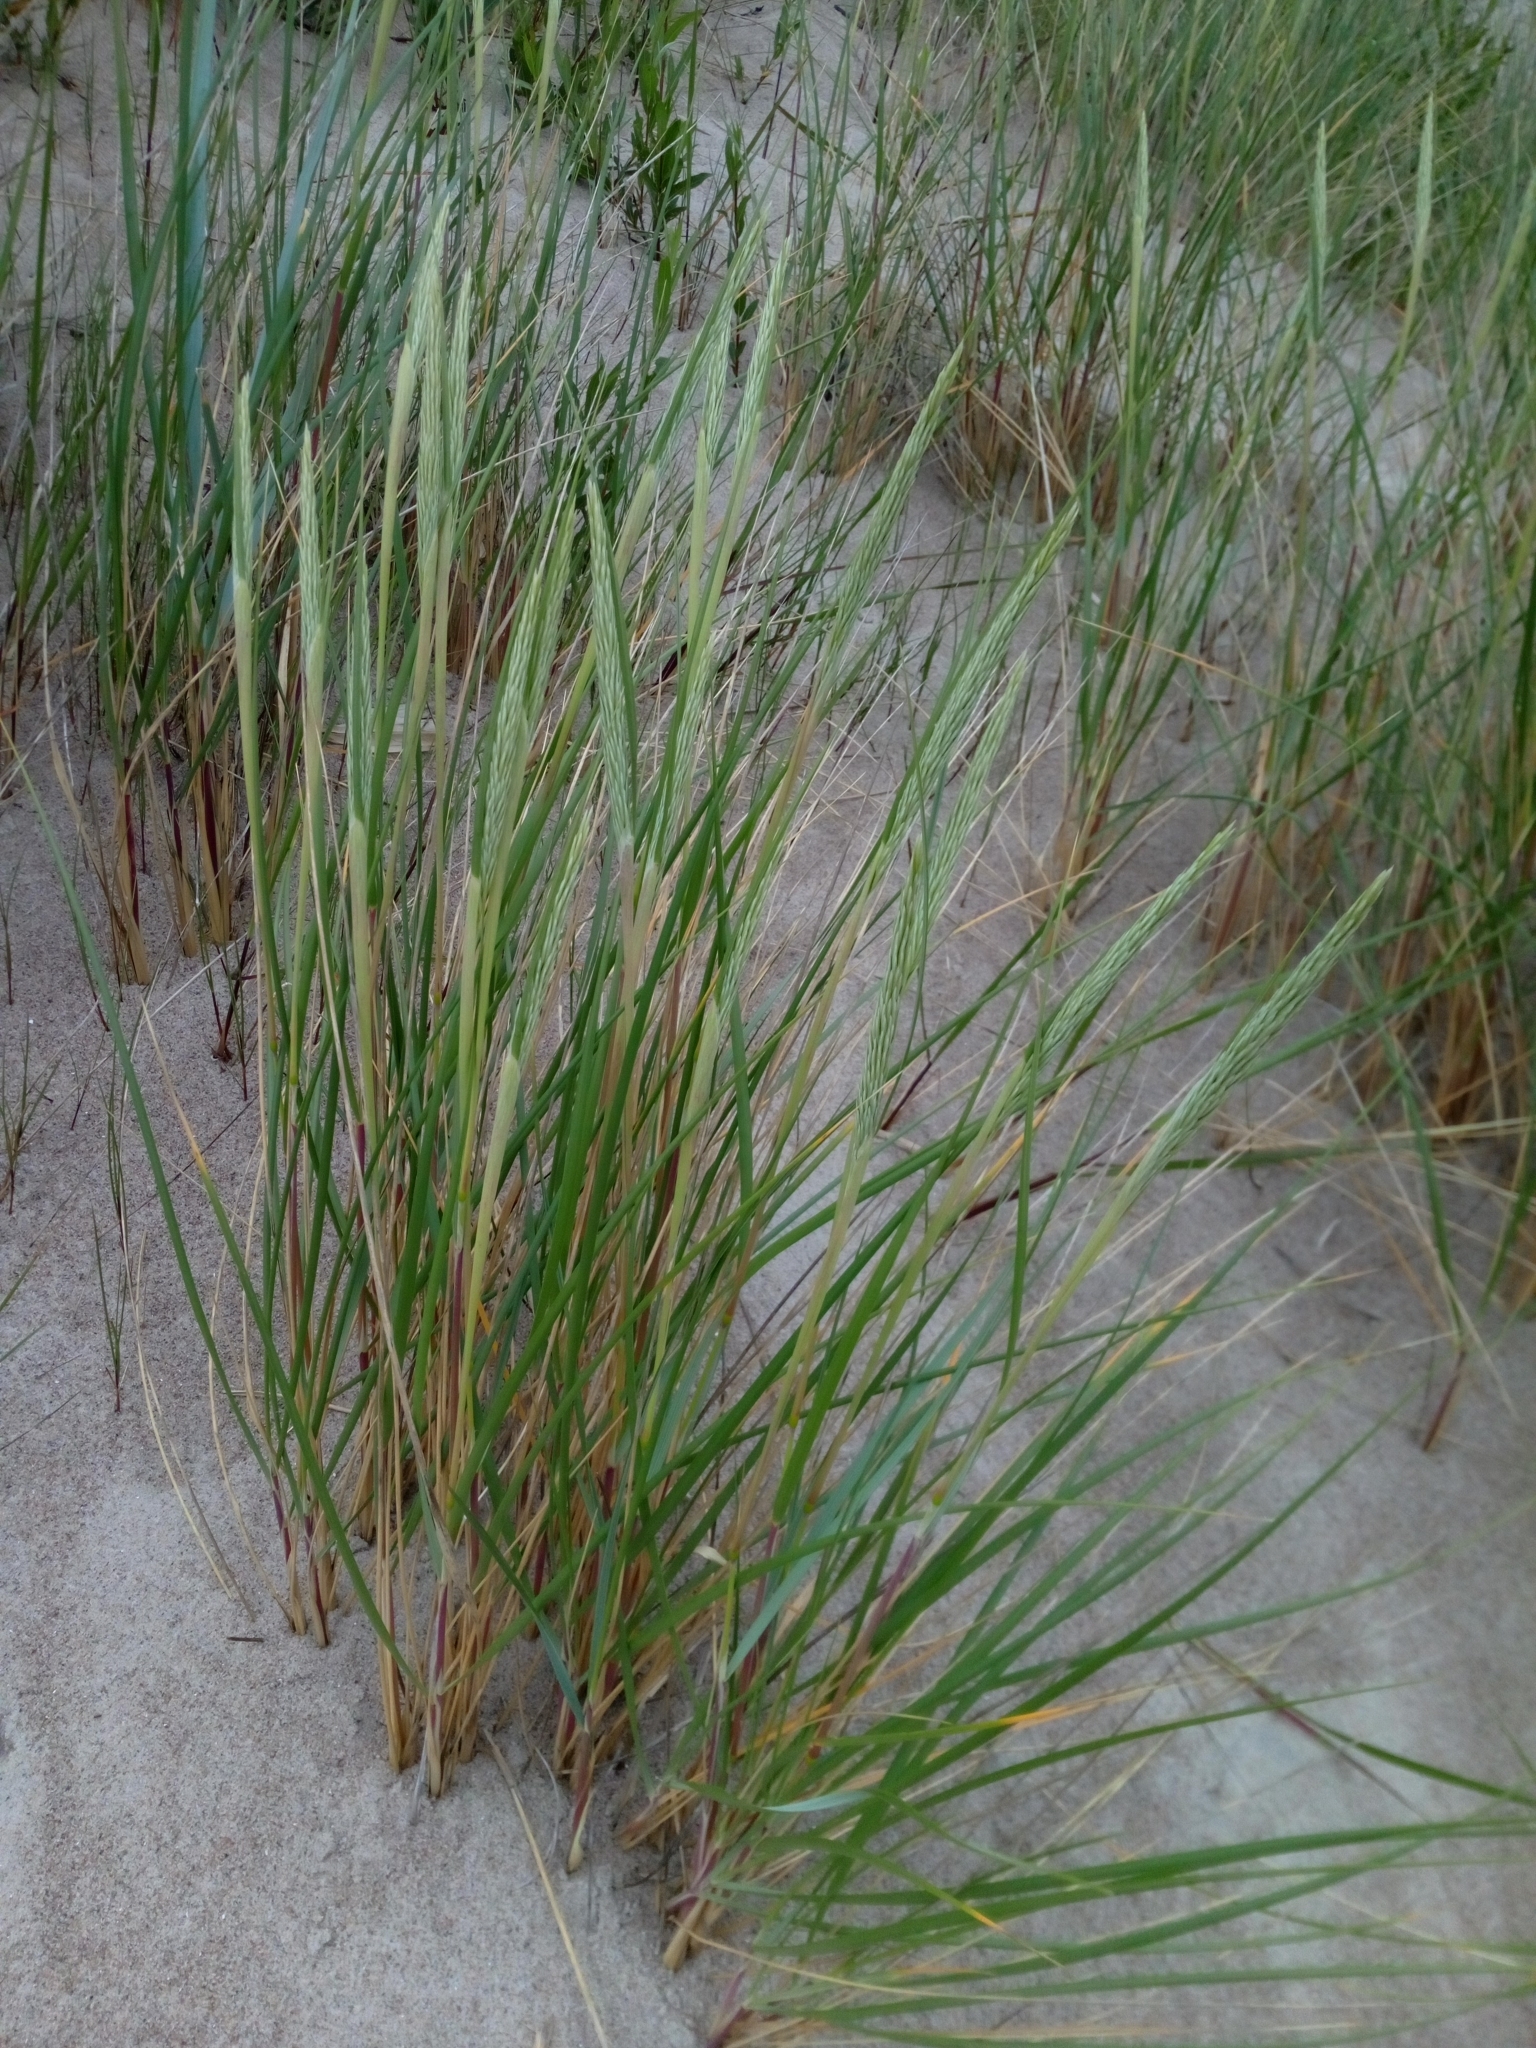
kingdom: Plantae
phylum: Tracheophyta
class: Liliopsida
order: Poales
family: Poaceae
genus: Calamagrostis
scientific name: Calamagrostis arenaria
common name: European beachgrass
